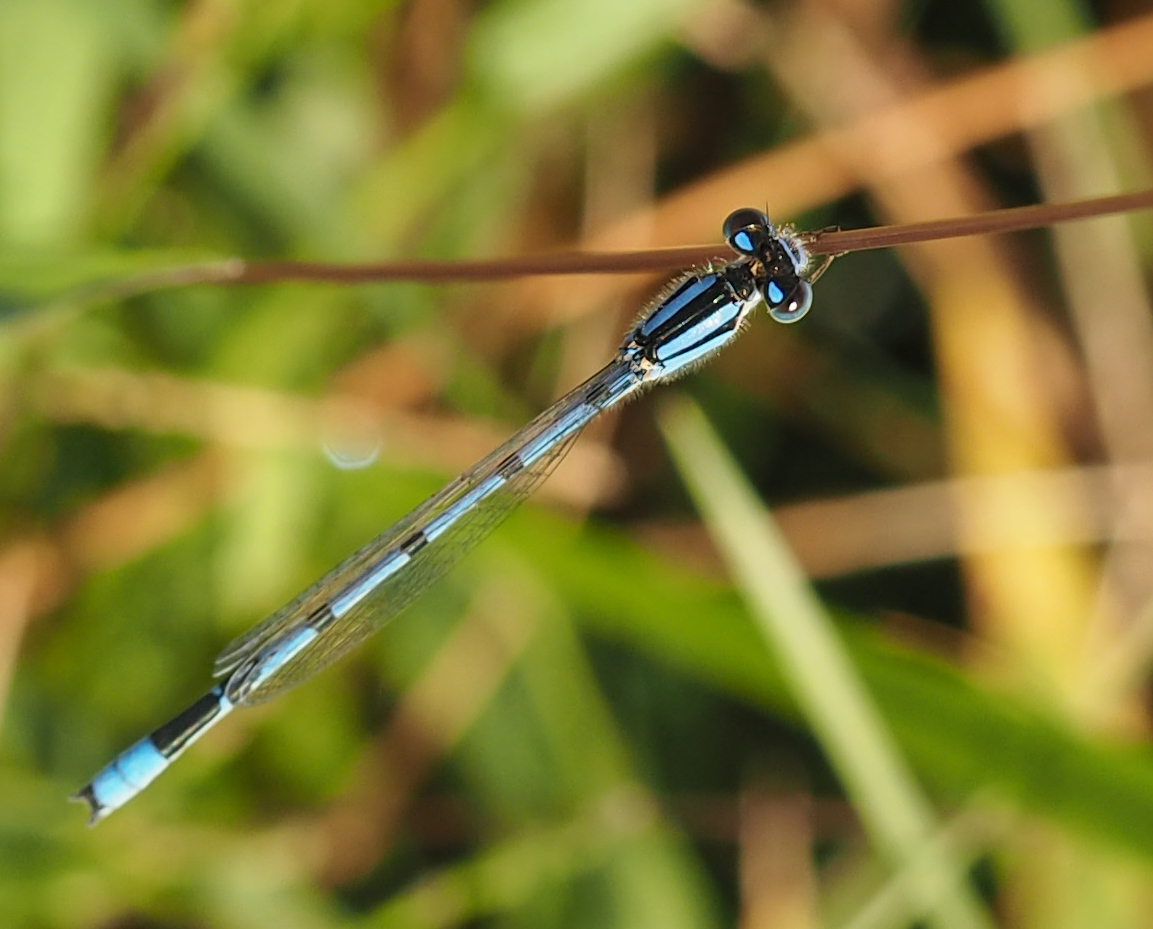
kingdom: Animalia
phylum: Arthropoda
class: Insecta
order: Odonata
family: Coenagrionidae
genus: Enallagma
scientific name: Enallagma civile
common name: Damselfly
